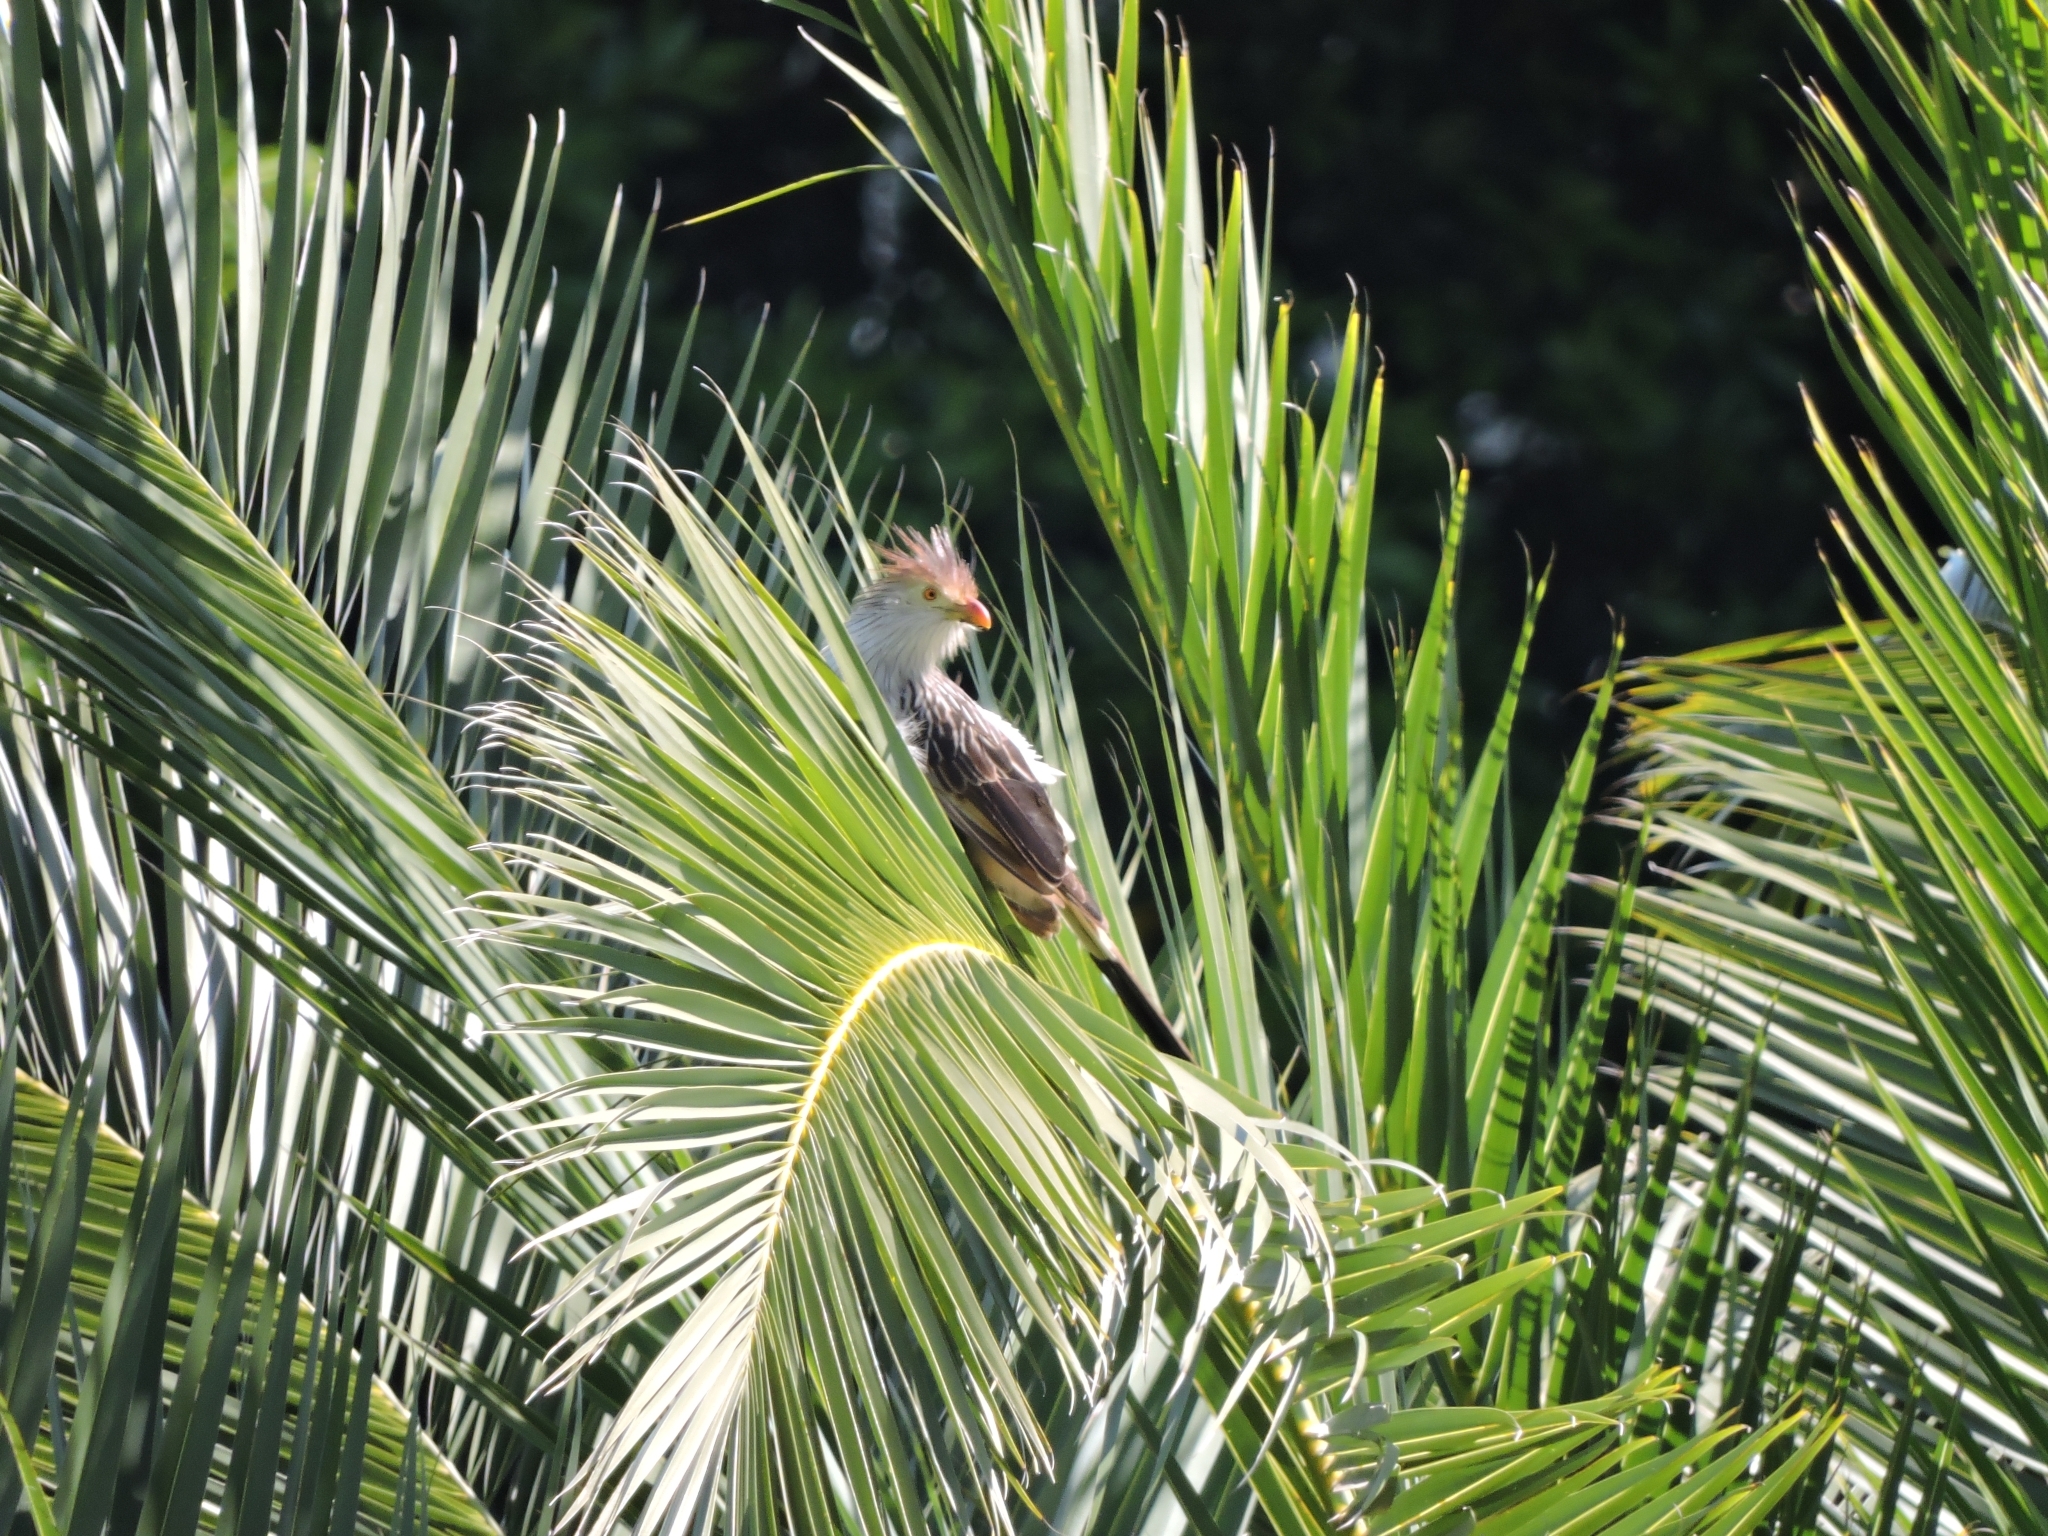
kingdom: Animalia
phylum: Chordata
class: Aves
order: Cuculiformes
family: Cuculidae
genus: Guira
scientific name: Guira guira
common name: Guira cuckoo
